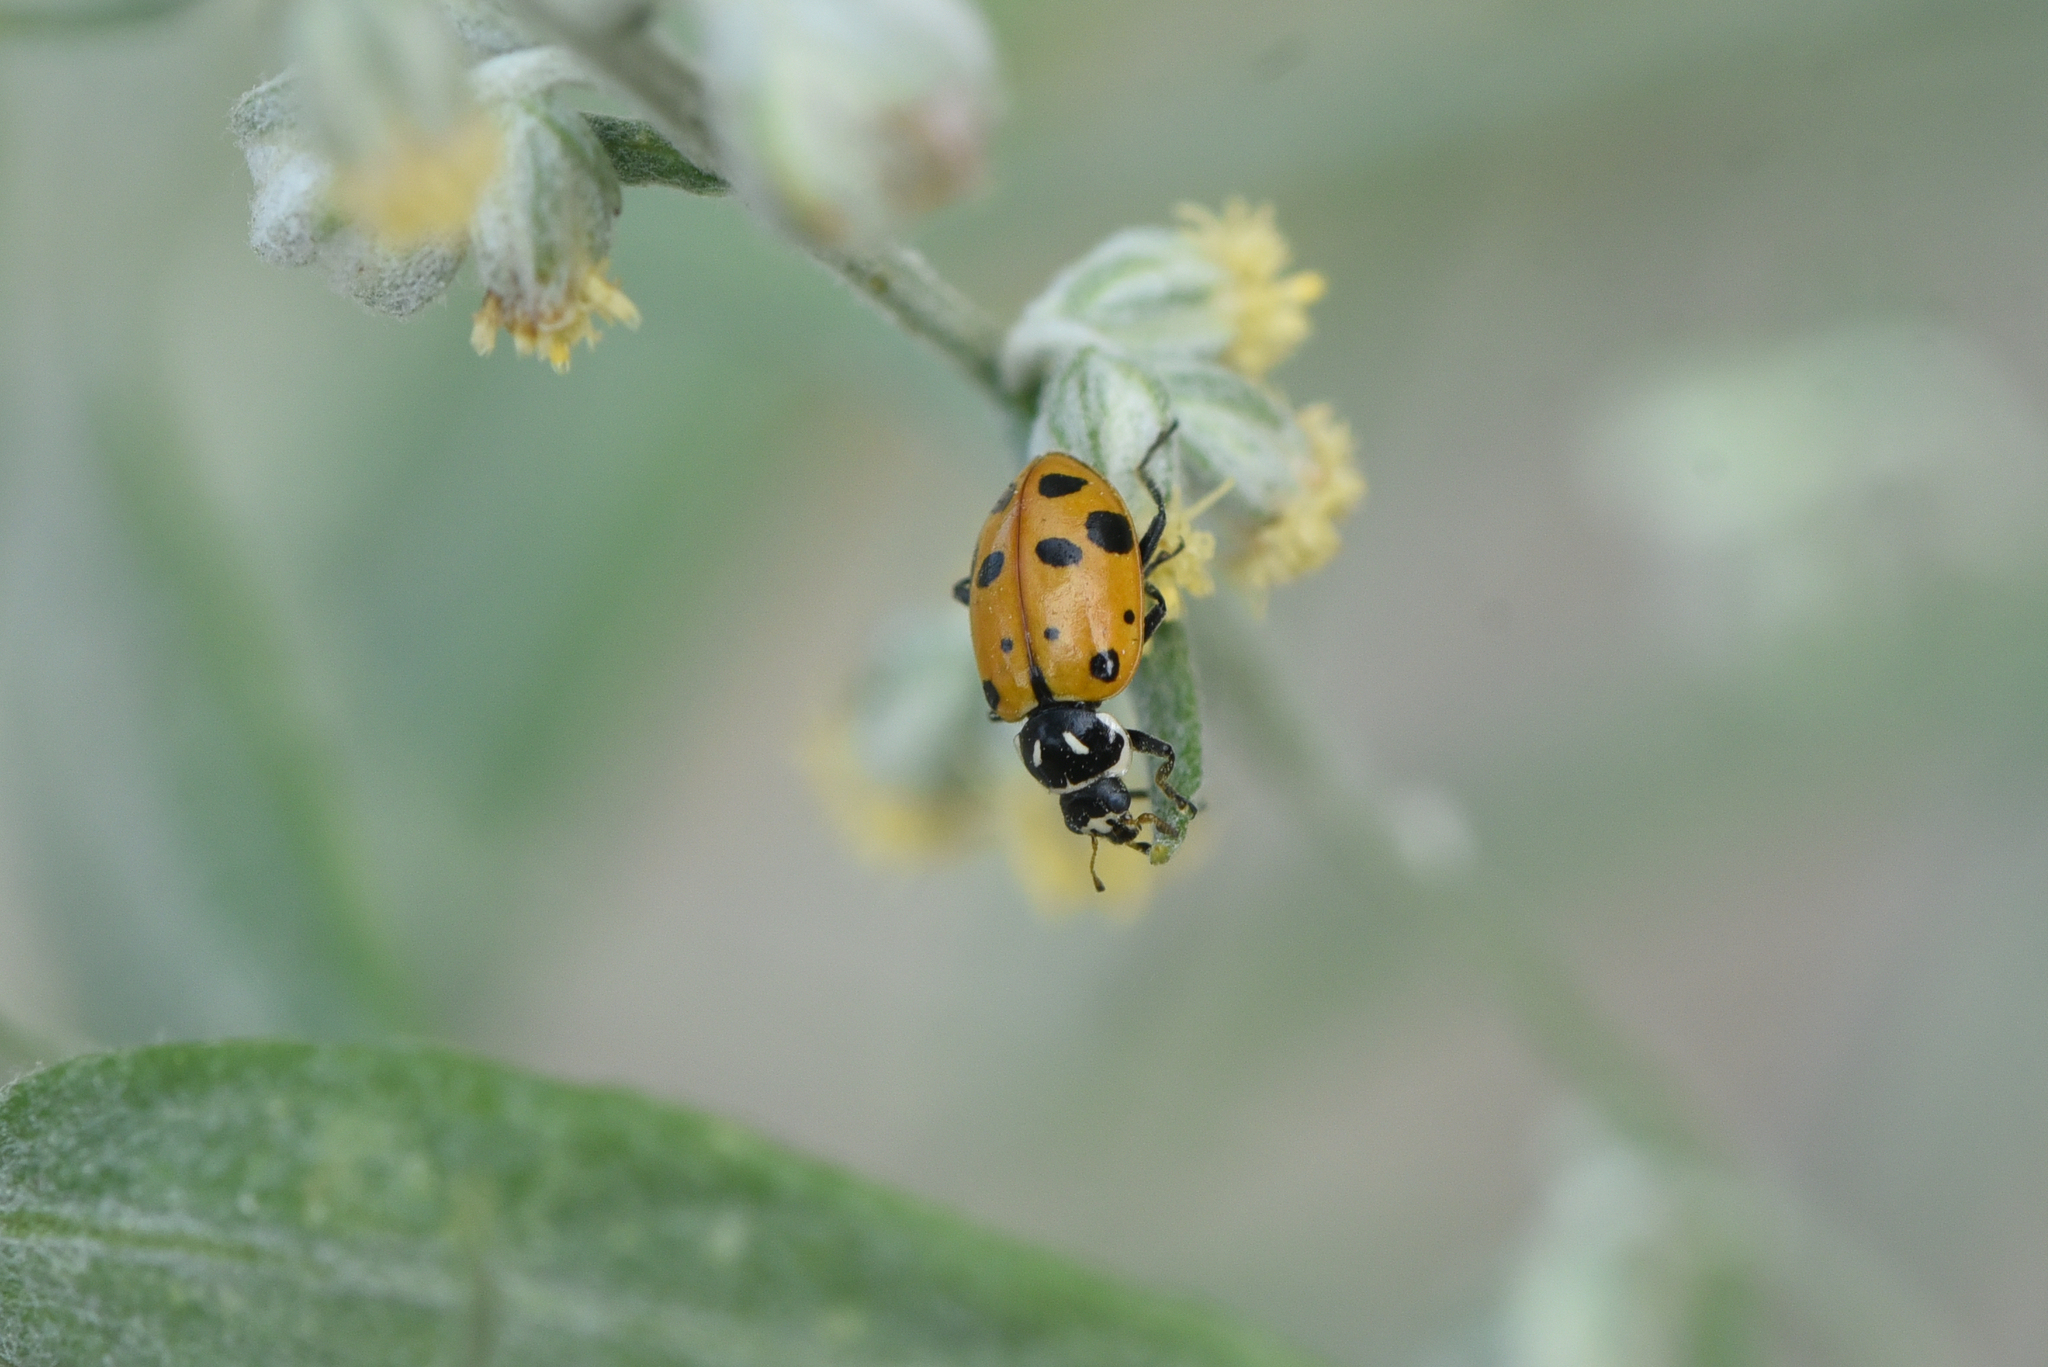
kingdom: Animalia
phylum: Arthropoda
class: Insecta
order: Coleoptera
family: Coccinellidae
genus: Hippodamia
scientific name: Hippodamia convergens
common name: Convergent lady beetle
